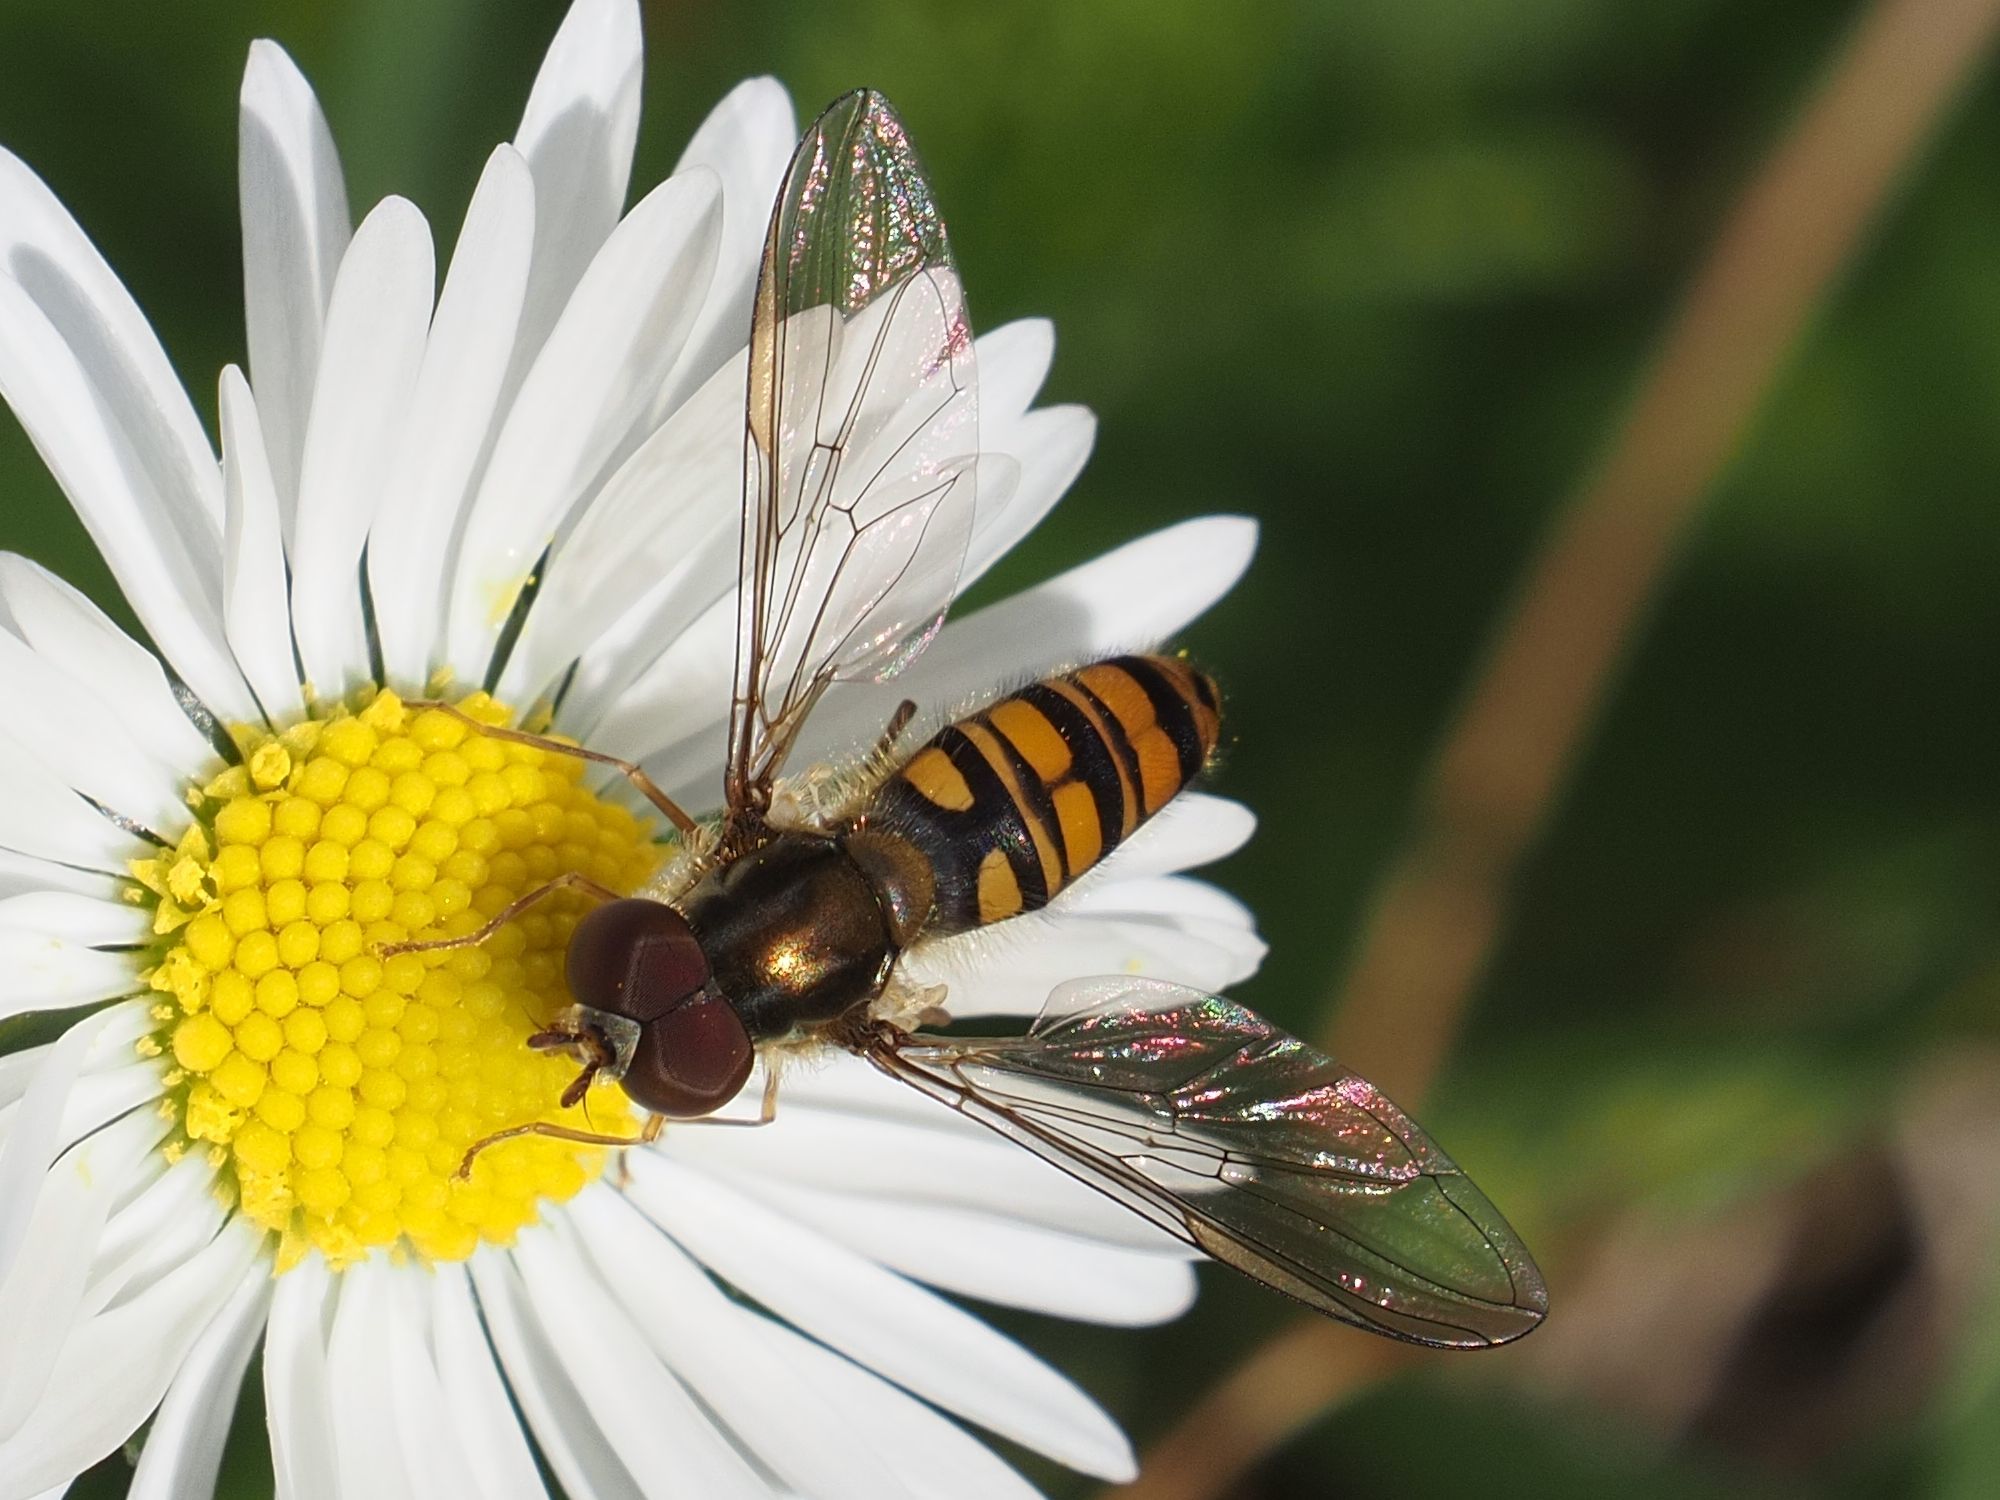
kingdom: Animalia
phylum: Arthropoda
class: Insecta
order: Diptera
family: Syrphidae
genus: Episyrphus
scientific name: Episyrphus balteatus
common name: Marmalade hoverfly
